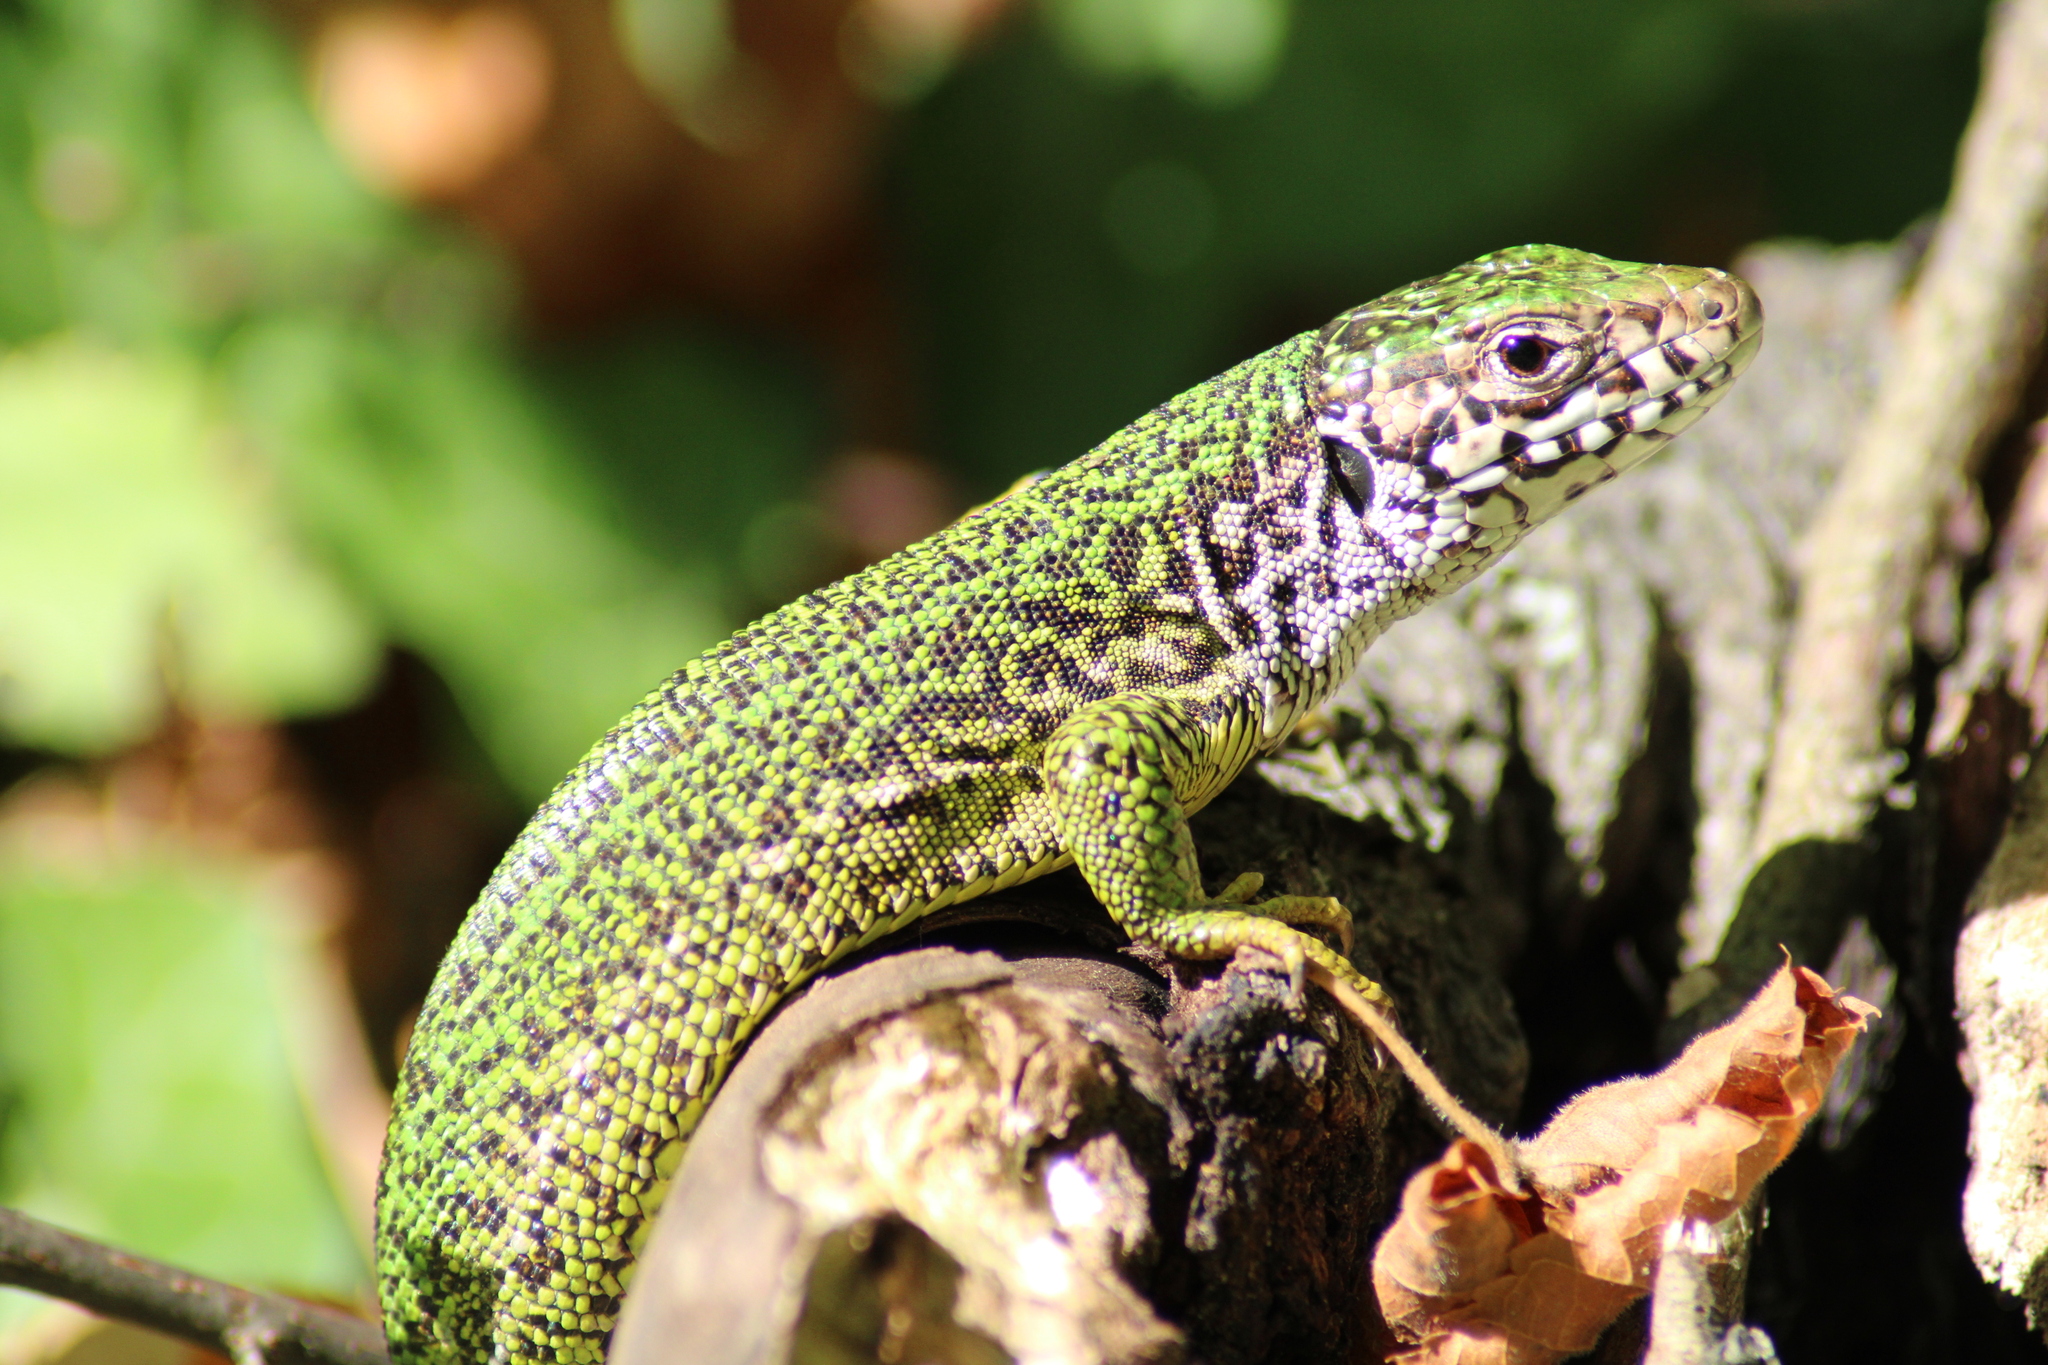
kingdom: Animalia
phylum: Chordata
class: Squamata
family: Lacertidae
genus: Lacerta
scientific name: Lacerta viridis
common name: European green lizard
